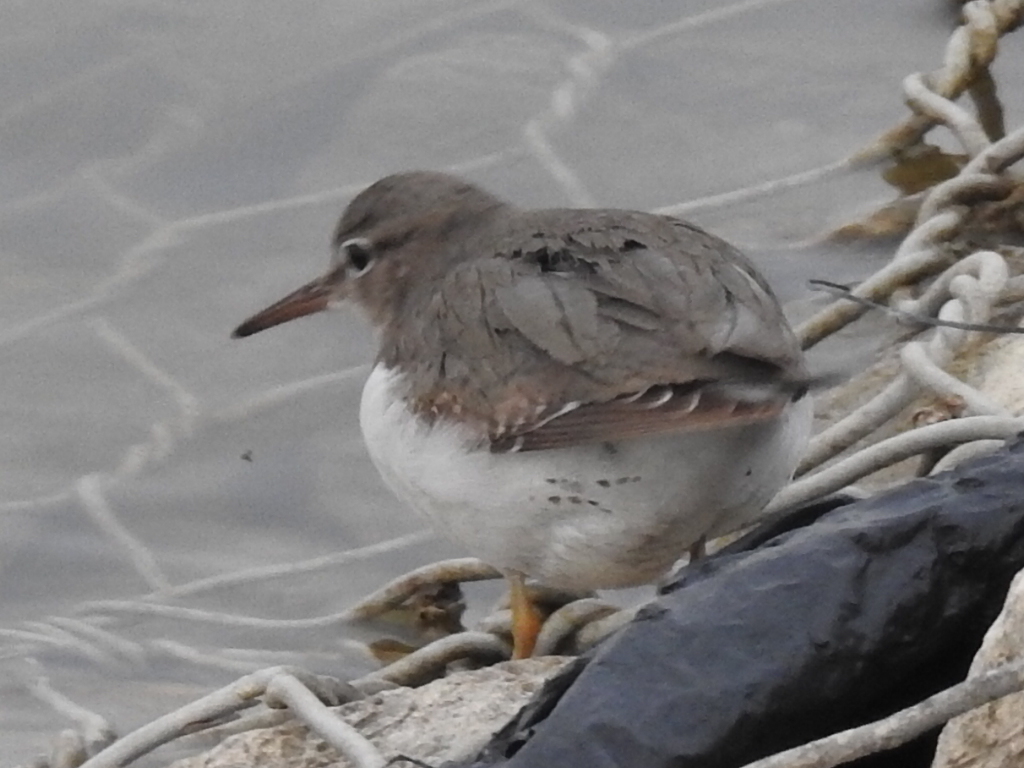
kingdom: Animalia
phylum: Chordata
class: Aves
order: Charadriiformes
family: Scolopacidae
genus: Actitis
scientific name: Actitis macularius
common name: Spotted sandpiper
